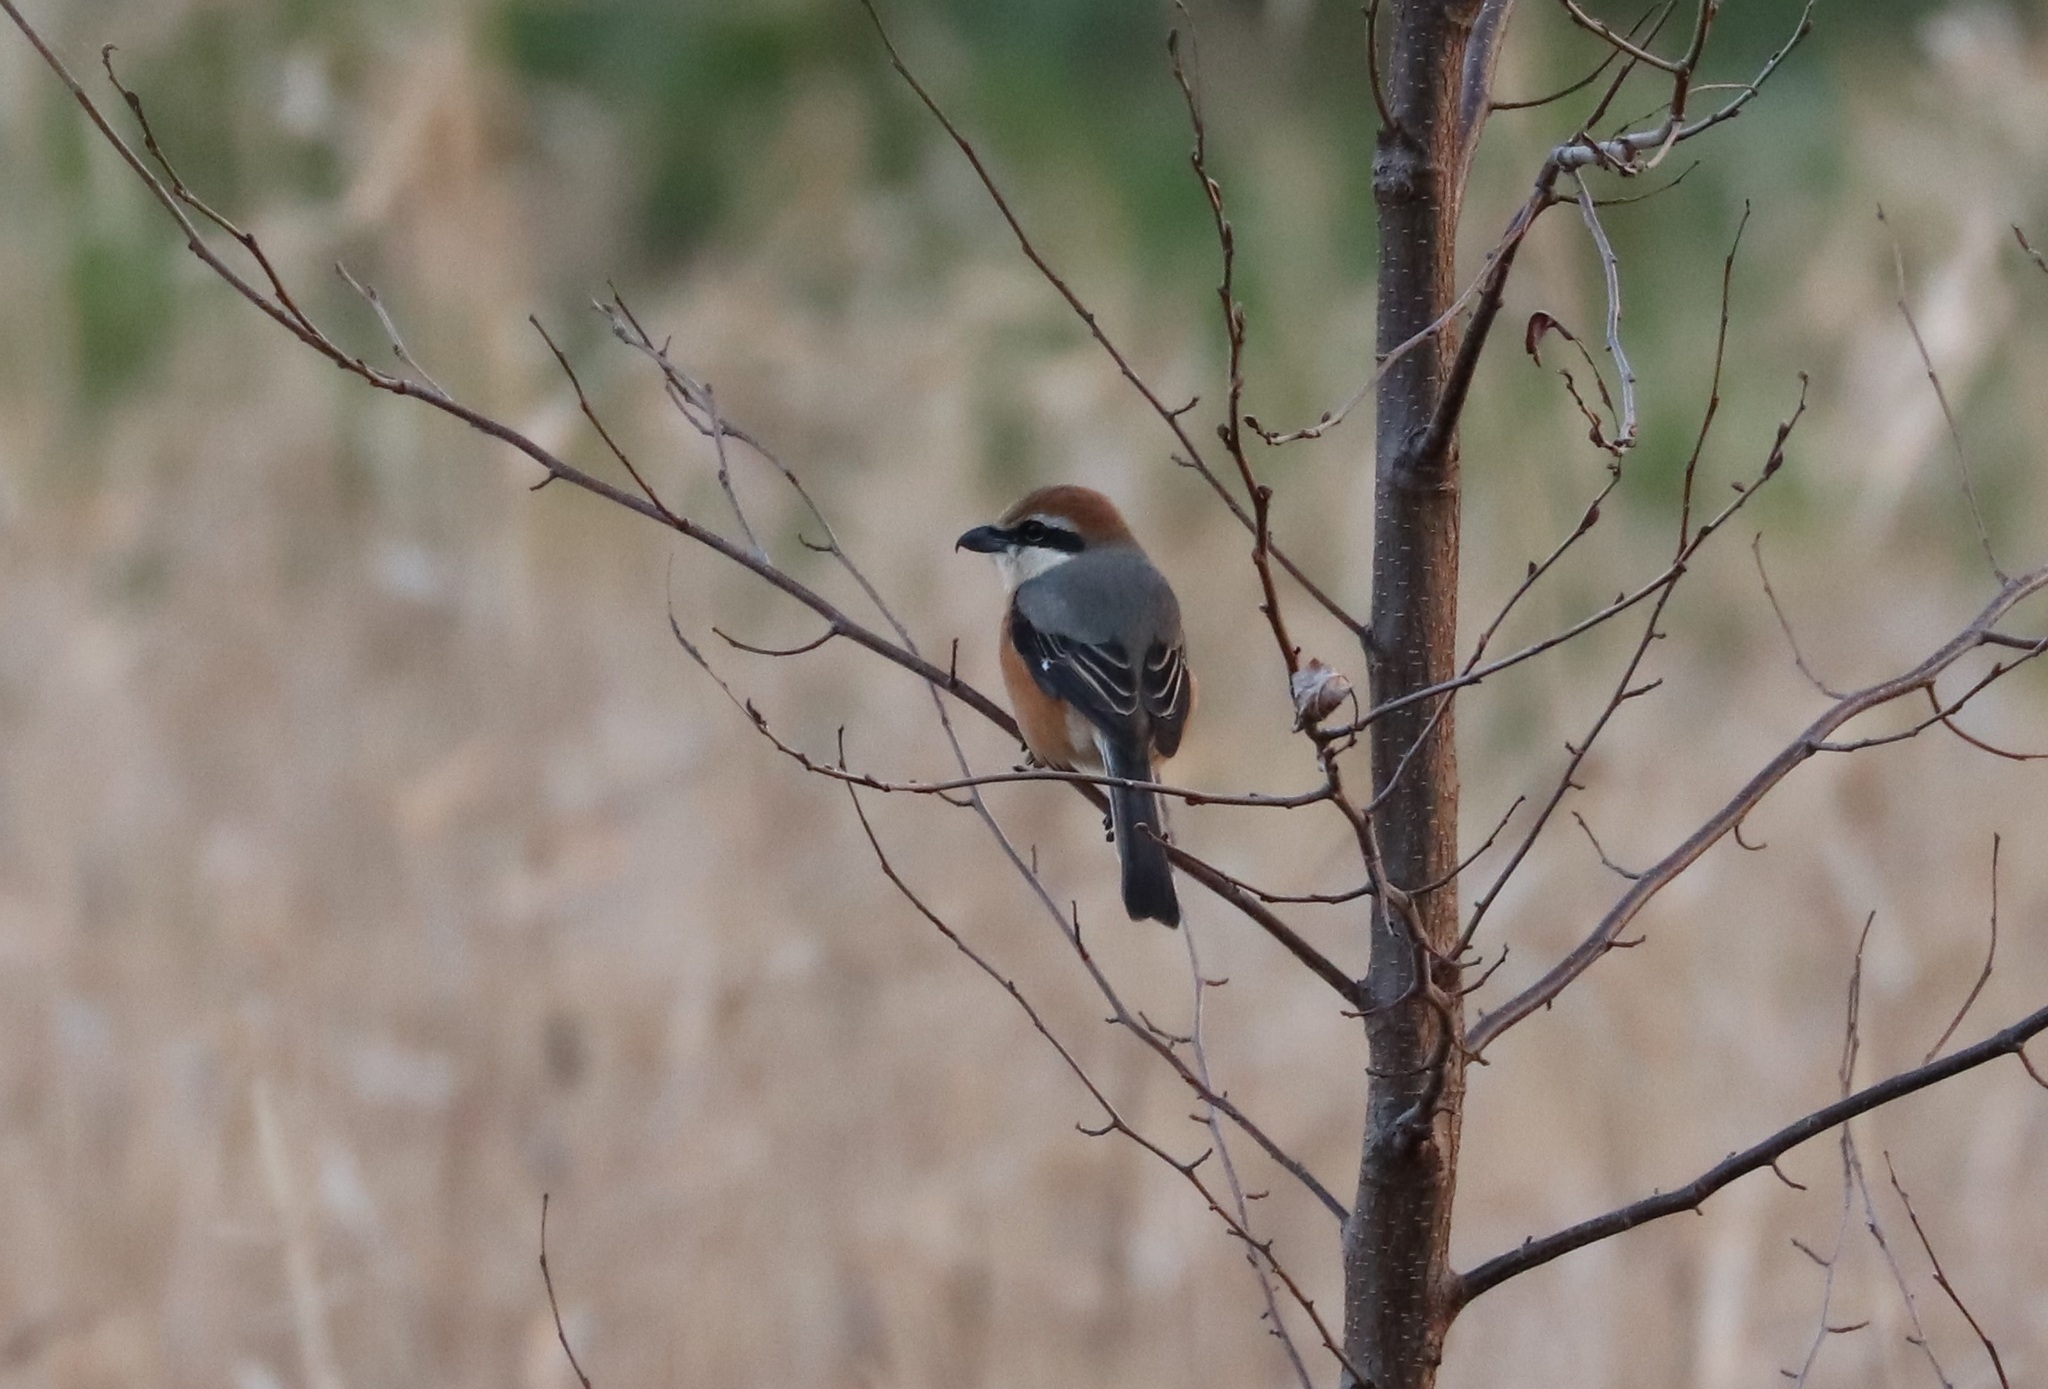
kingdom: Animalia
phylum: Chordata
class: Aves
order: Passeriformes
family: Laniidae
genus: Lanius
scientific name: Lanius bucephalus
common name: Bull-headed shrike
